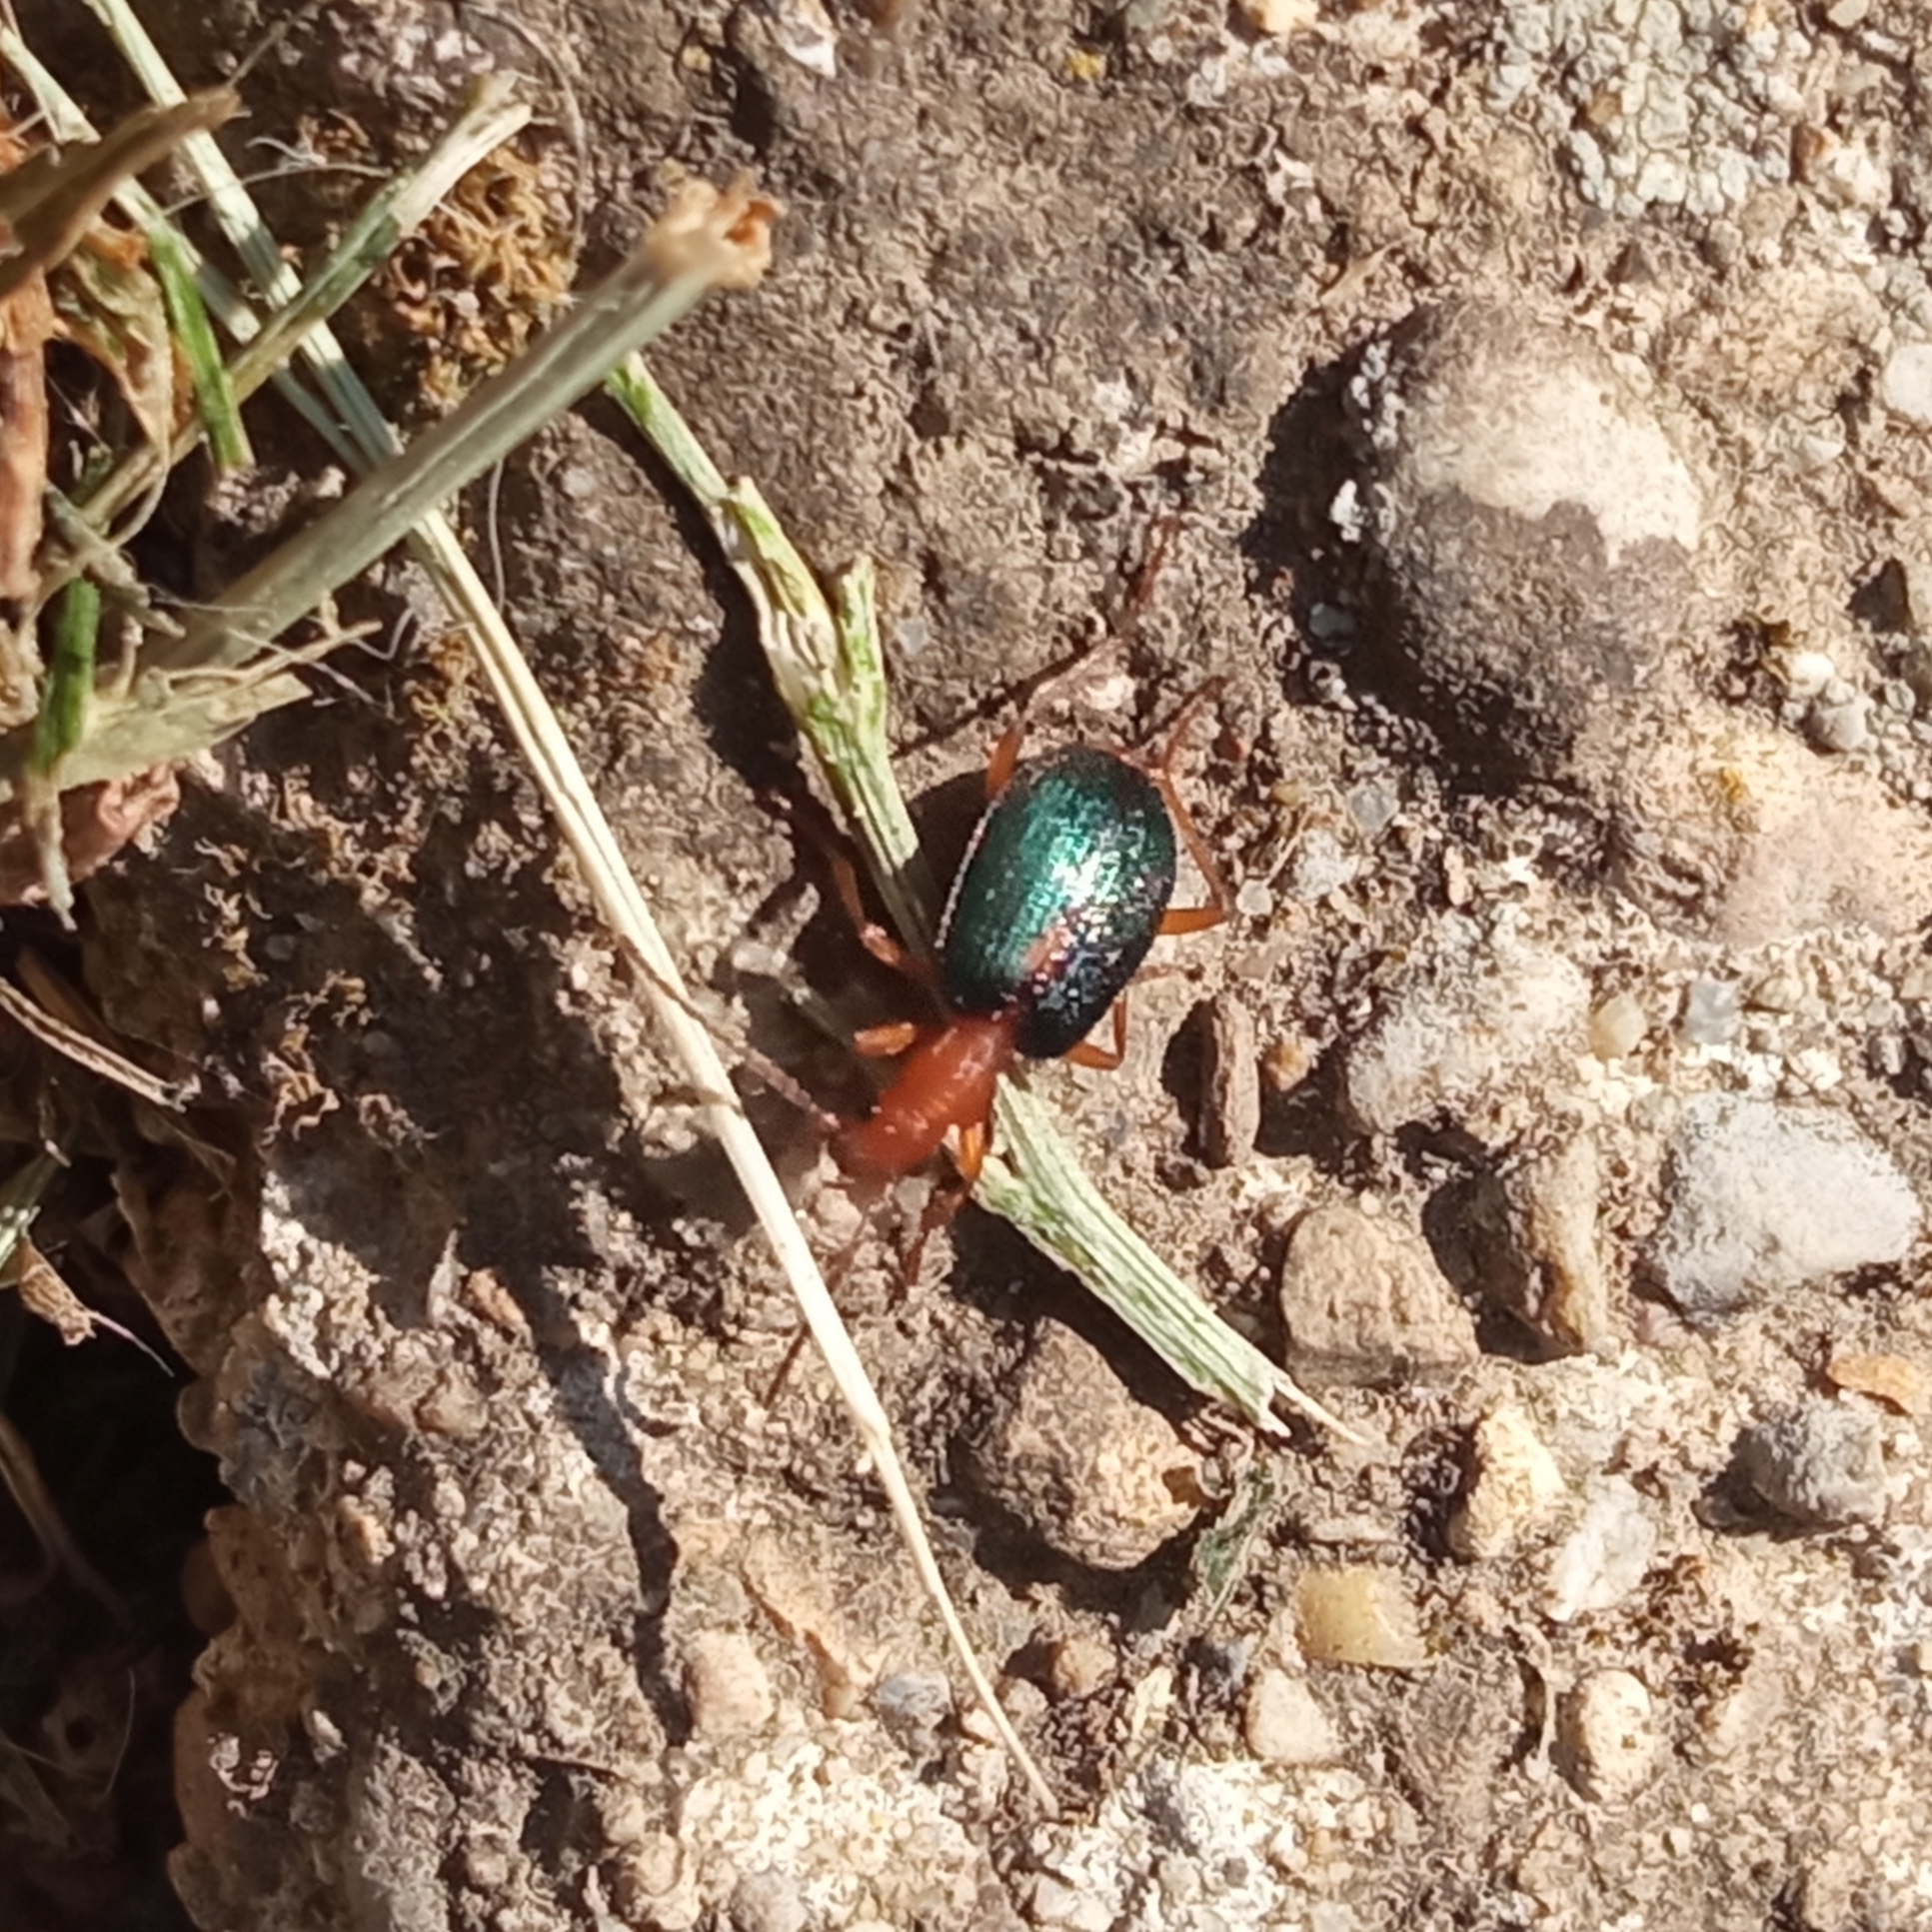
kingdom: Animalia
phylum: Arthropoda
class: Insecta
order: Coleoptera
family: Carabidae
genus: Brachinus
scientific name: Brachinus sclopeta
